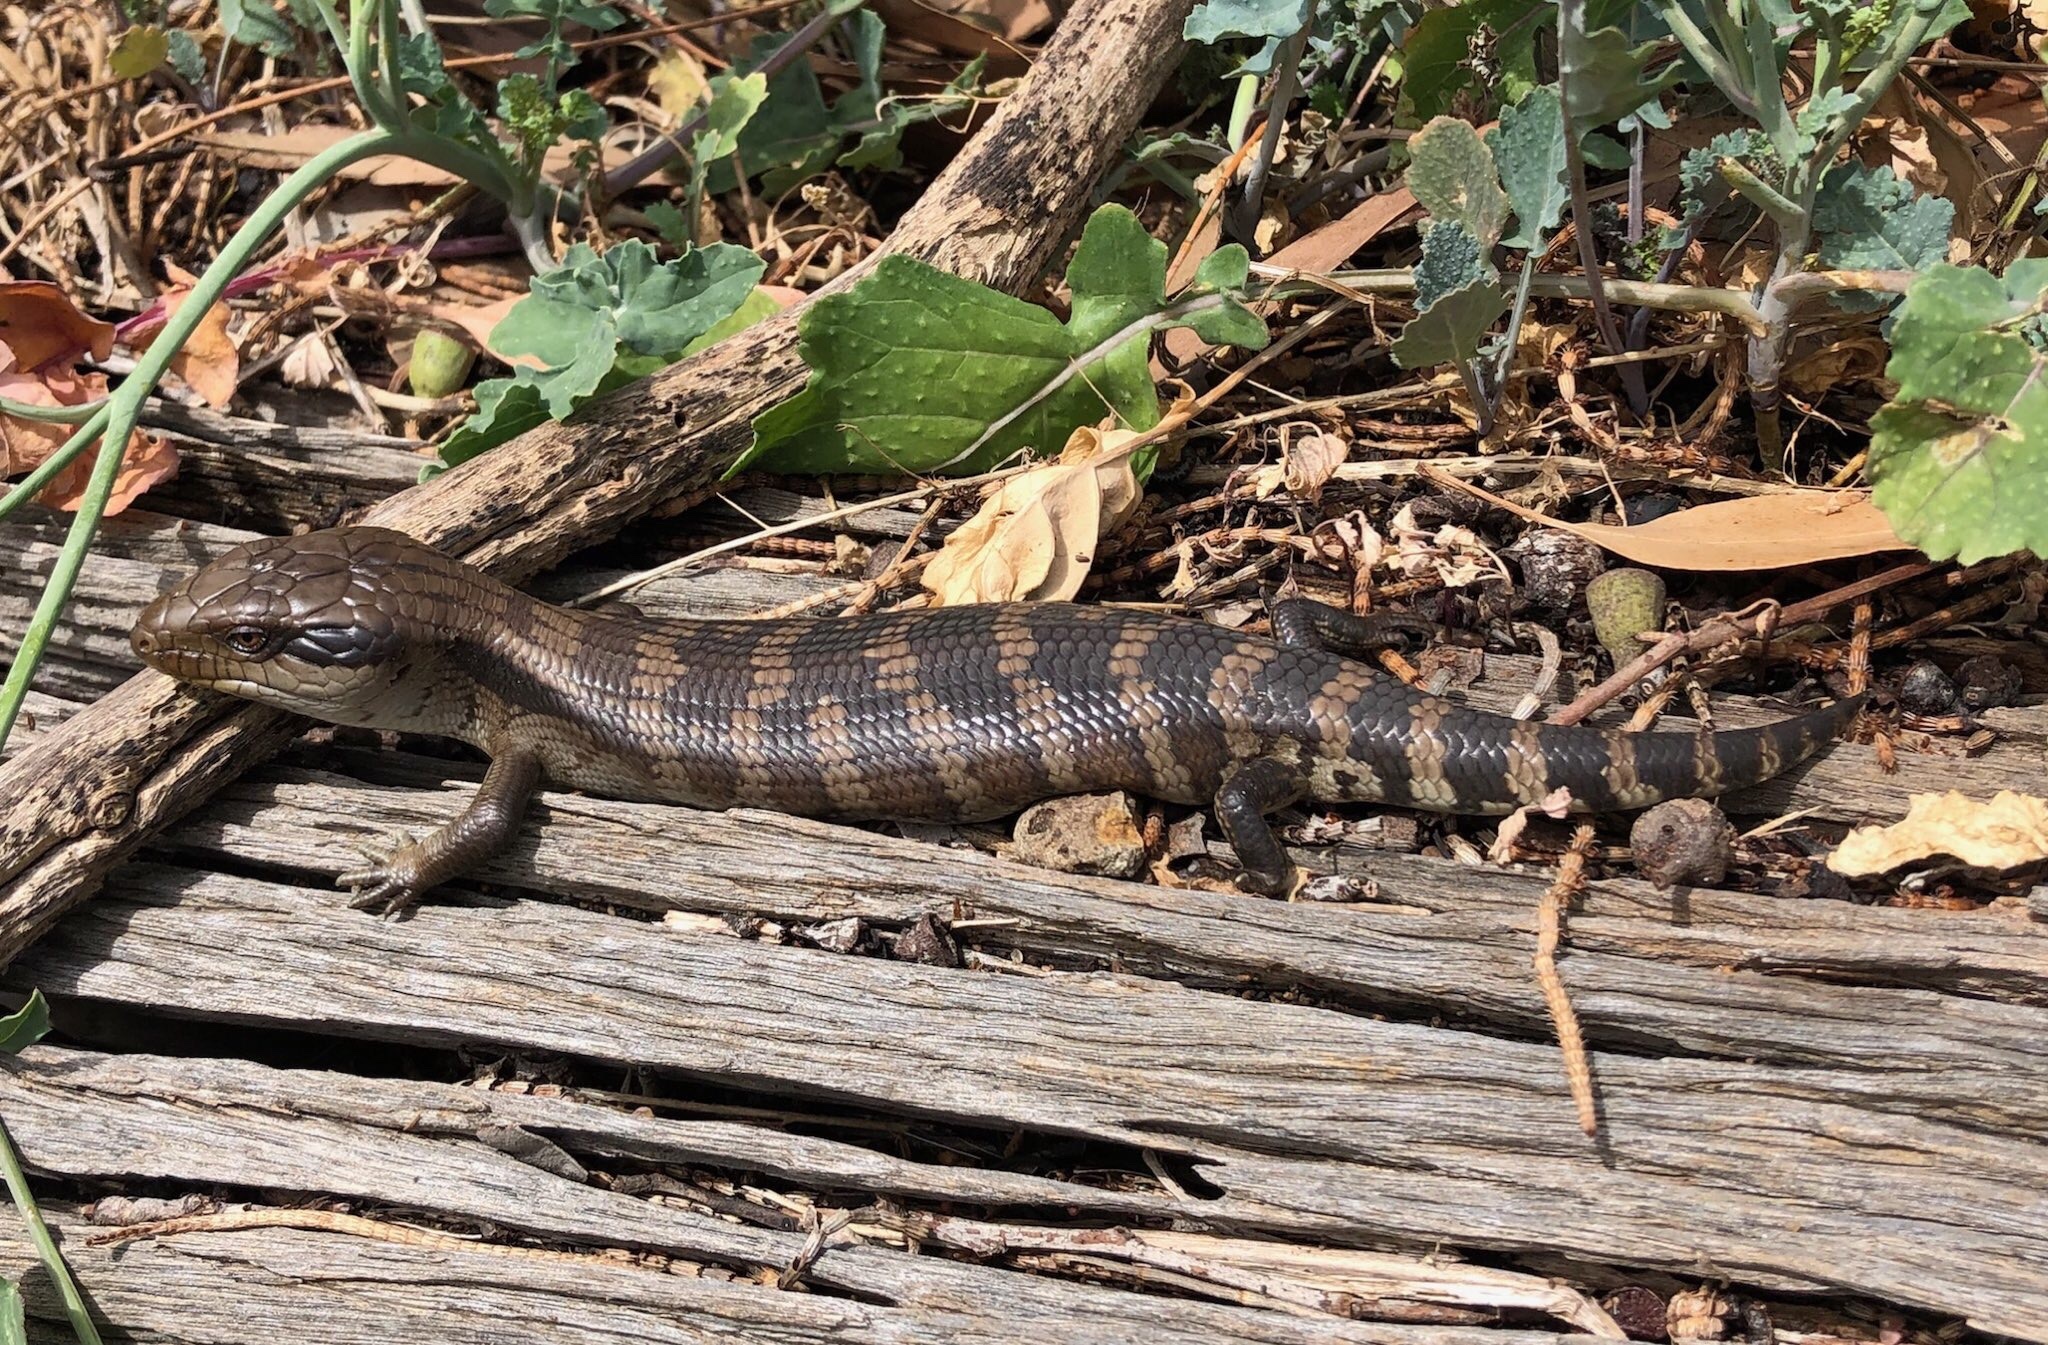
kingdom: Animalia
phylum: Chordata
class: Squamata
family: Scincidae
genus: Tiliqua
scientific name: Tiliqua scincoides
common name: Common bluetongue
